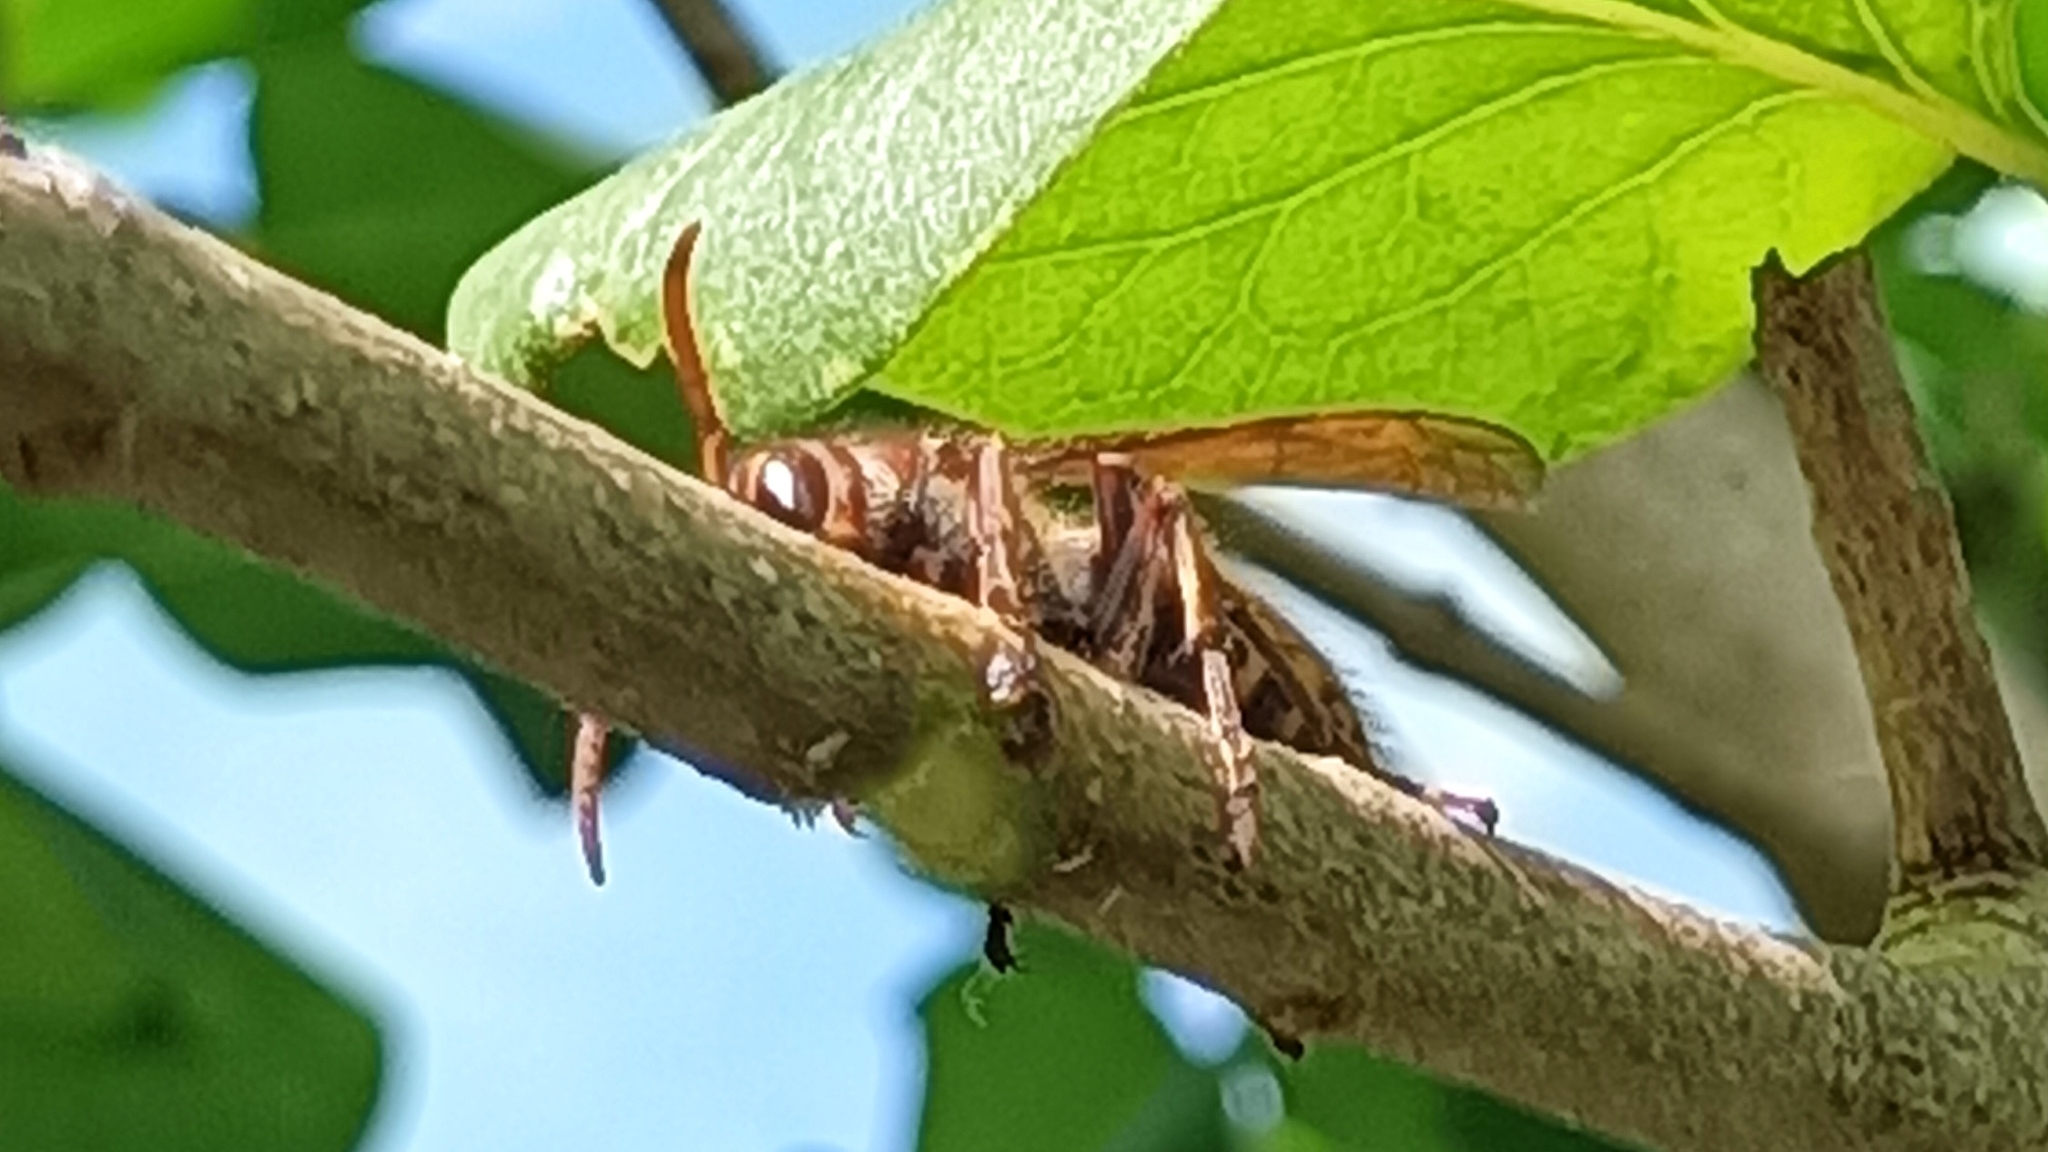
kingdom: Animalia
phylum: Arthropoda
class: Insecta
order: Hymenoptera
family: Vespidae
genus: Vespa
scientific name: Vespa crabro
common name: Hornet
